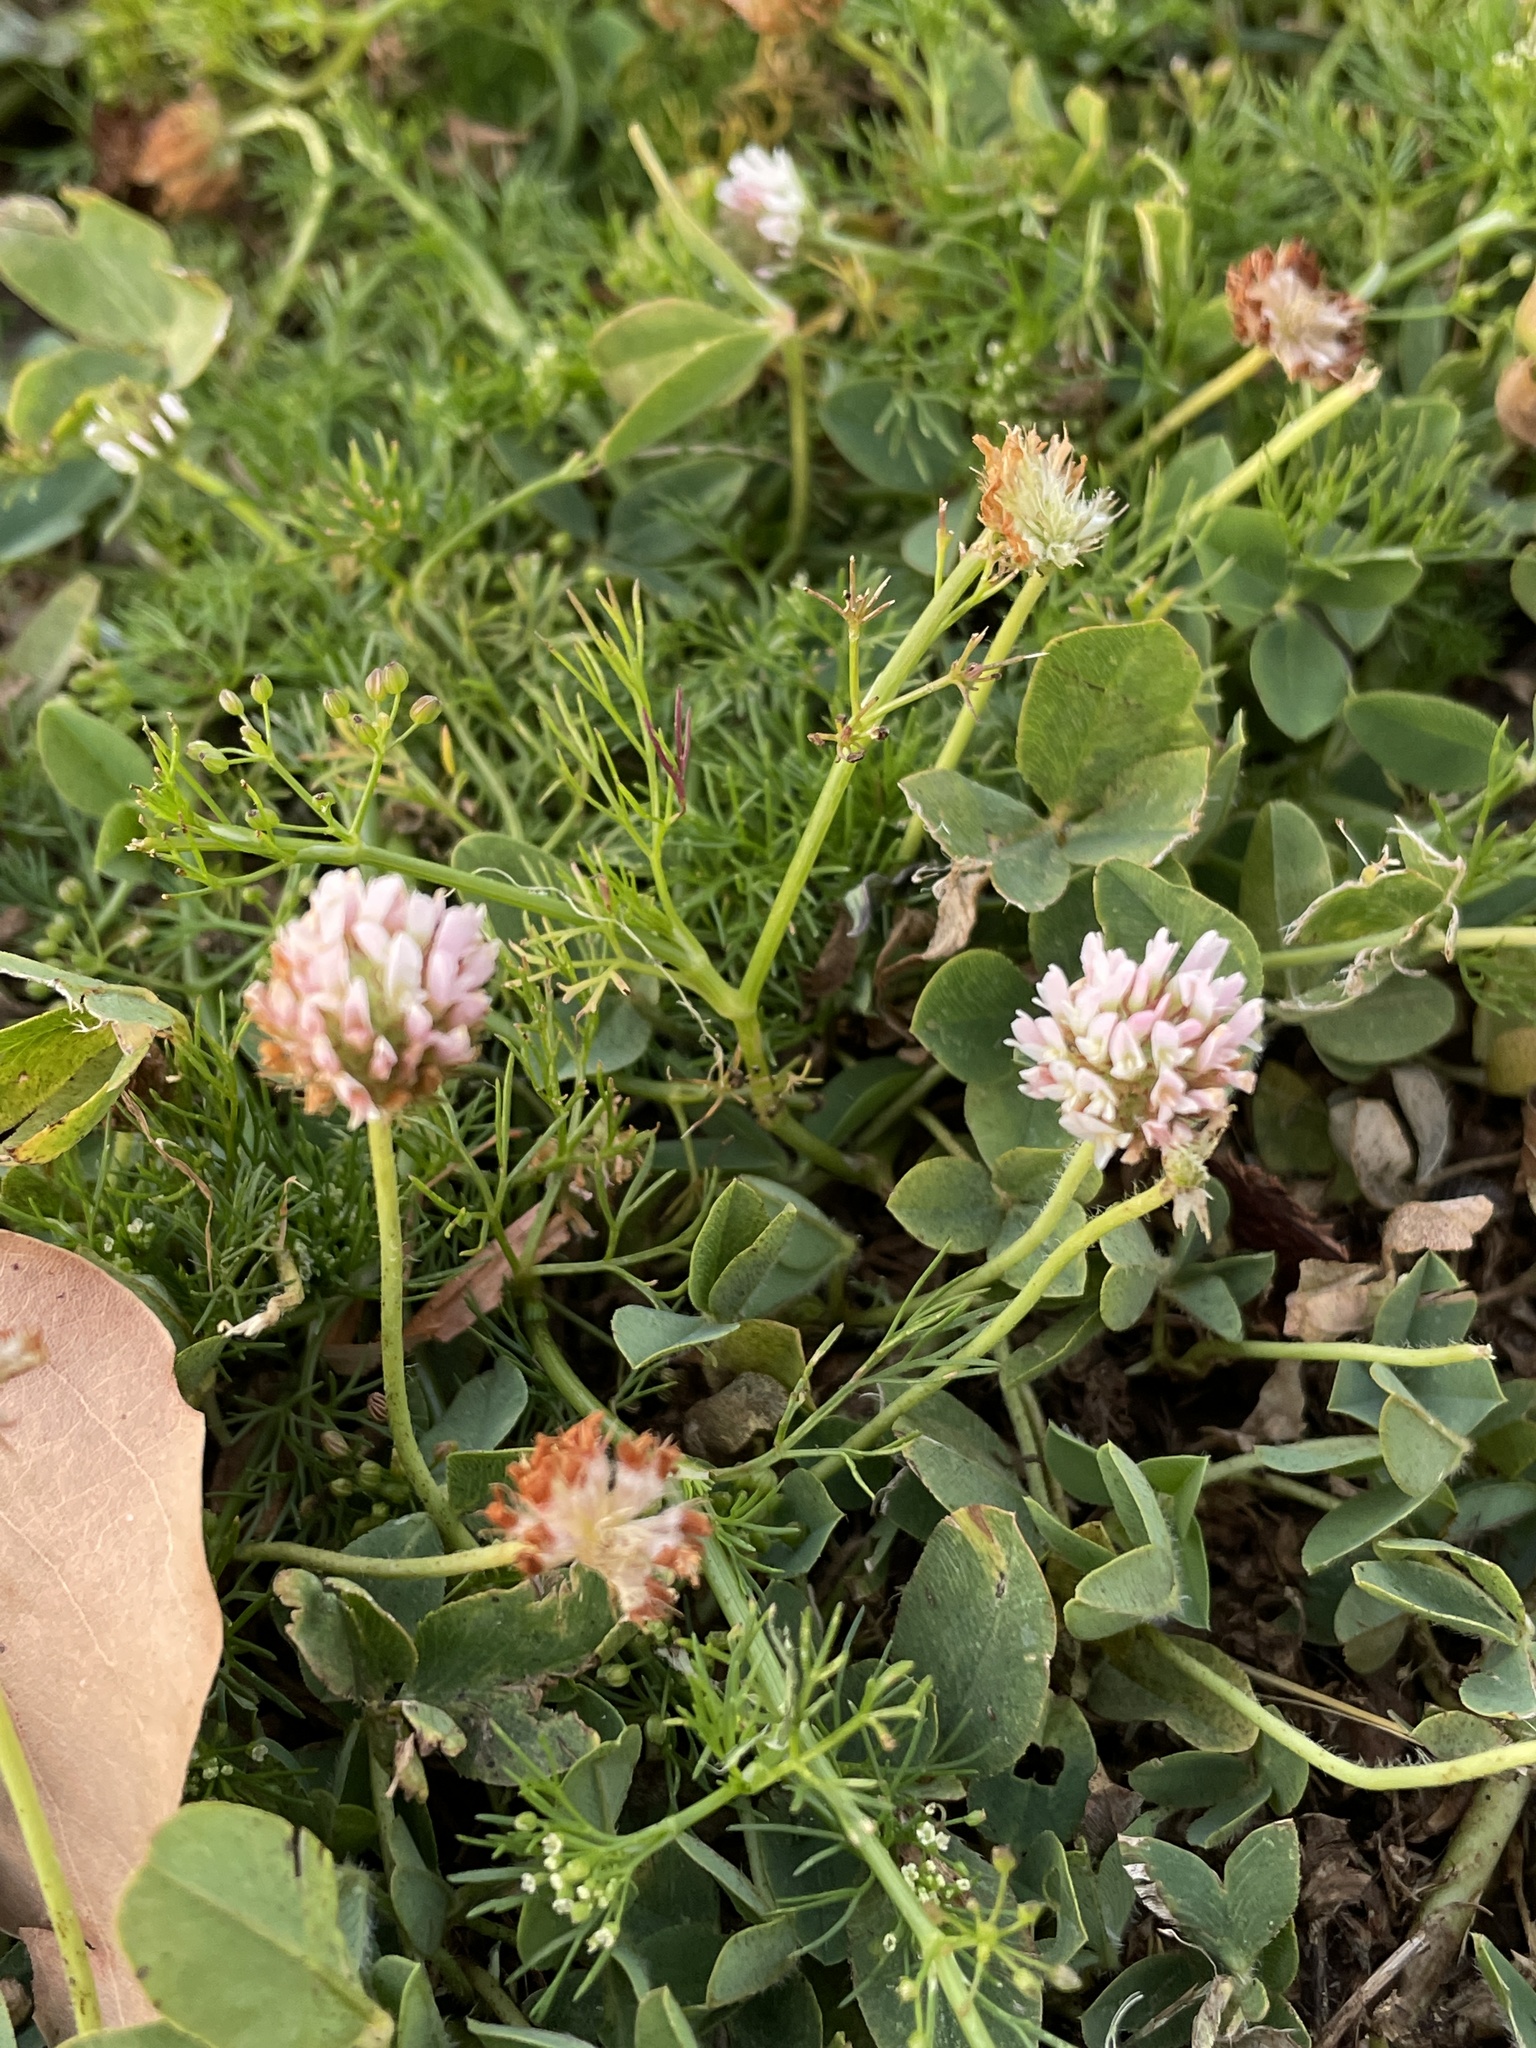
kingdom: Plantae
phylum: Tracheophyta
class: Magnoliopsida
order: Fabales
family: Fabaceae
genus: Trifolium
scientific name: Trifolium fragiferum
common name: Strawberry clover
